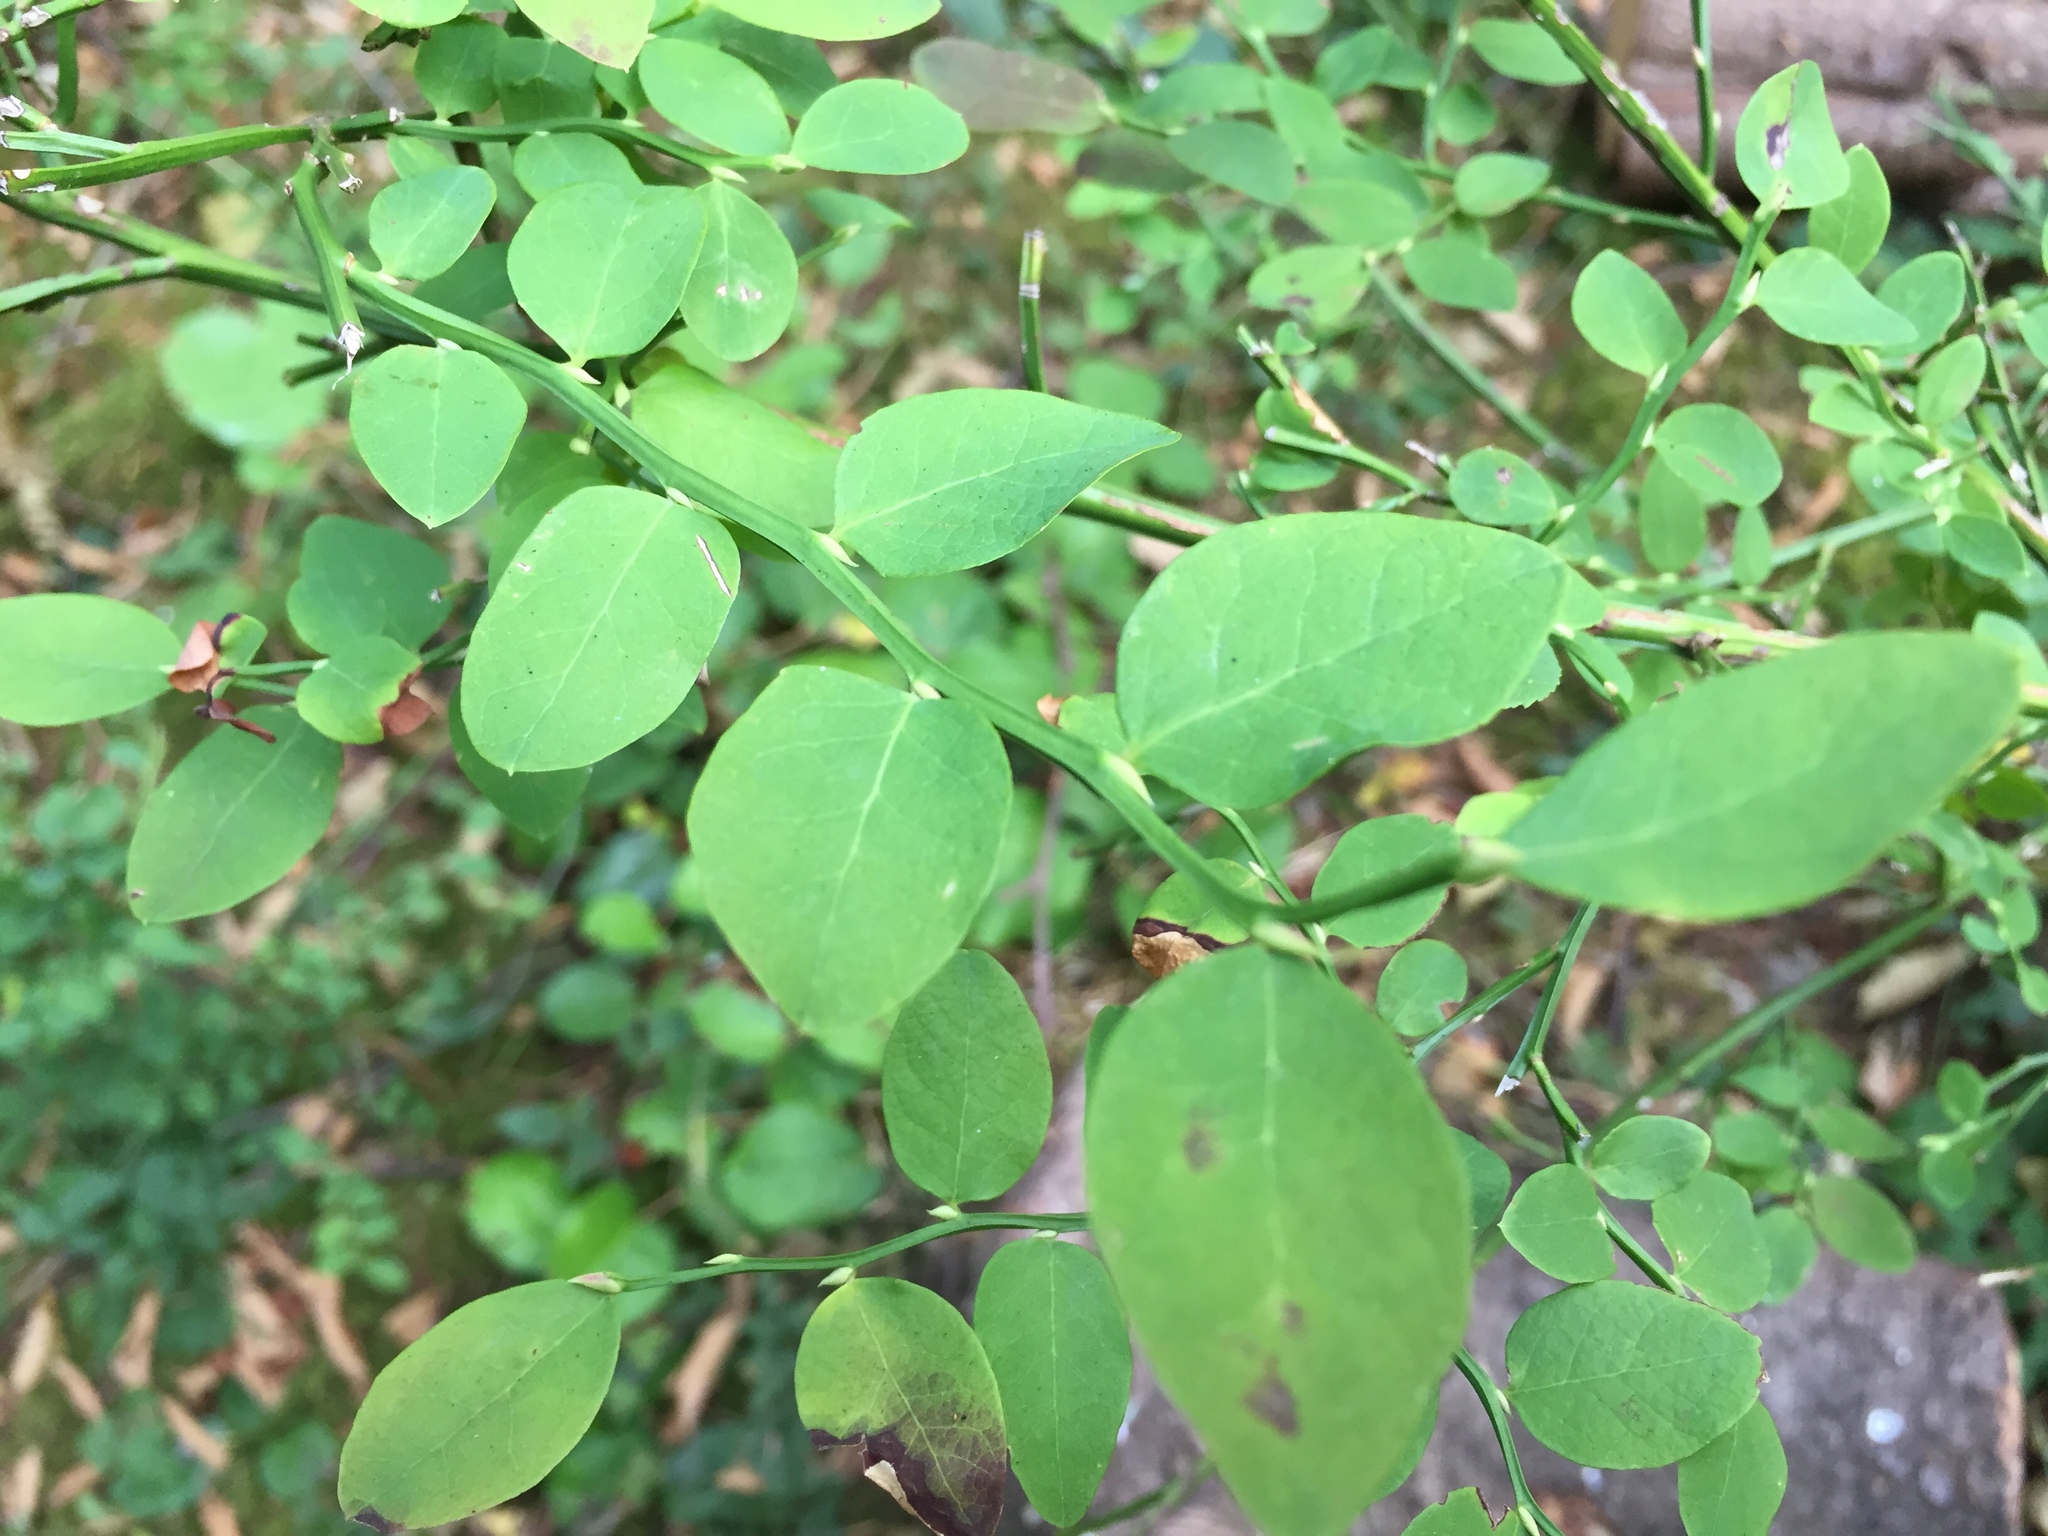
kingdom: Plantae
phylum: Tracheophyta
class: Magnoliopsida
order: Ericales
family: Ericaceae
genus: Vaccinium
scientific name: Vaccinium parvifolium
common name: Red-huckleberry
